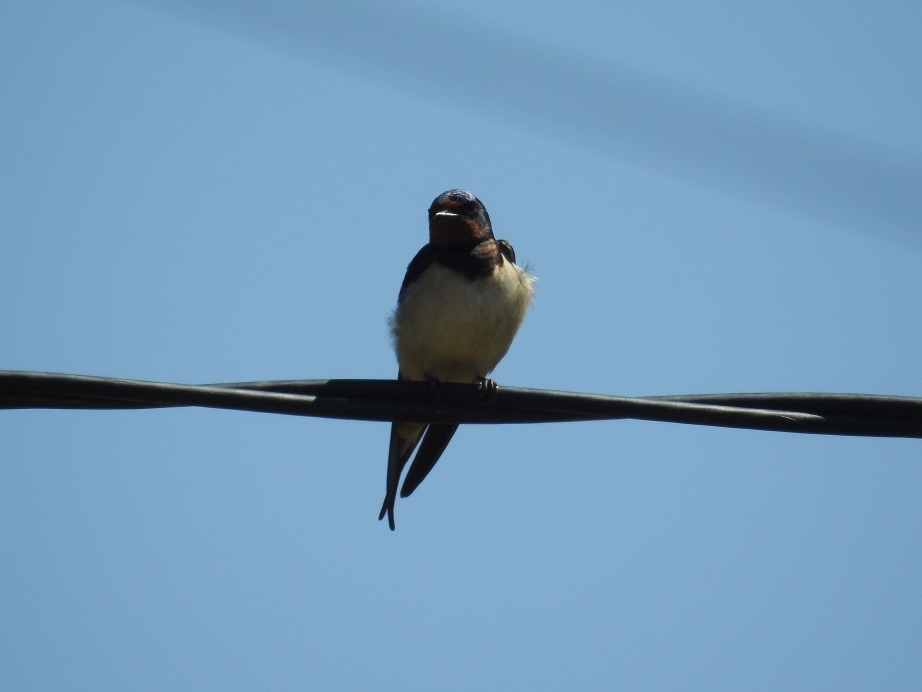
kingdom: Animalia
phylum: Chordata
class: Aves
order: Passeriformes
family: Hirundinidae
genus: Hirundo
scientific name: Hirundo rustica
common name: Barn swallow
